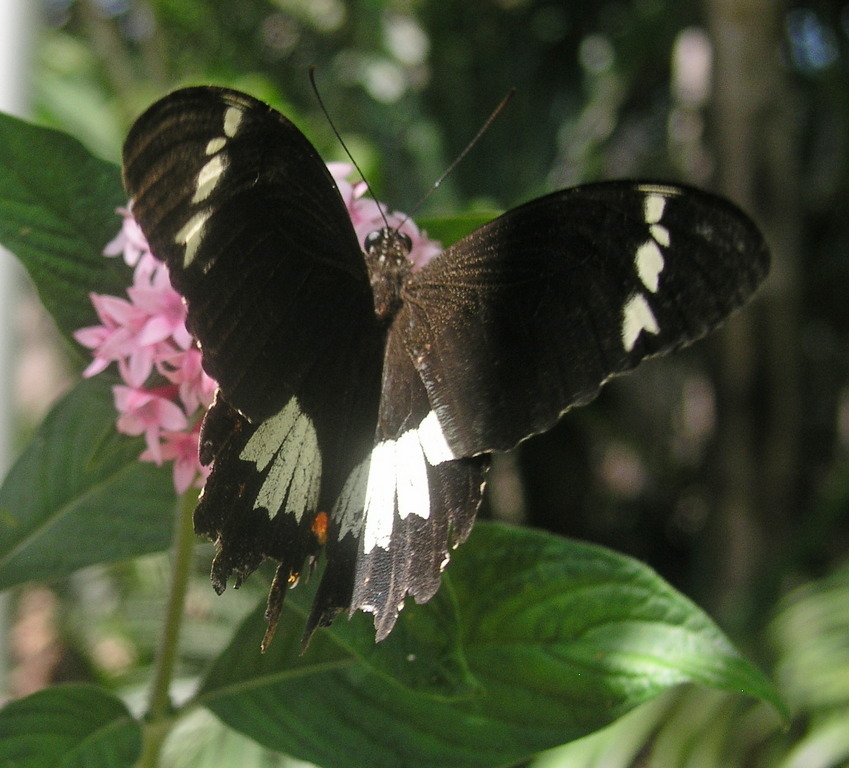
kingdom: Animalia
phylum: Arthropoda
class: Insecta
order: Lepidoptera
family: Papilionidae
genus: Papilio
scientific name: Papilio aegeus
